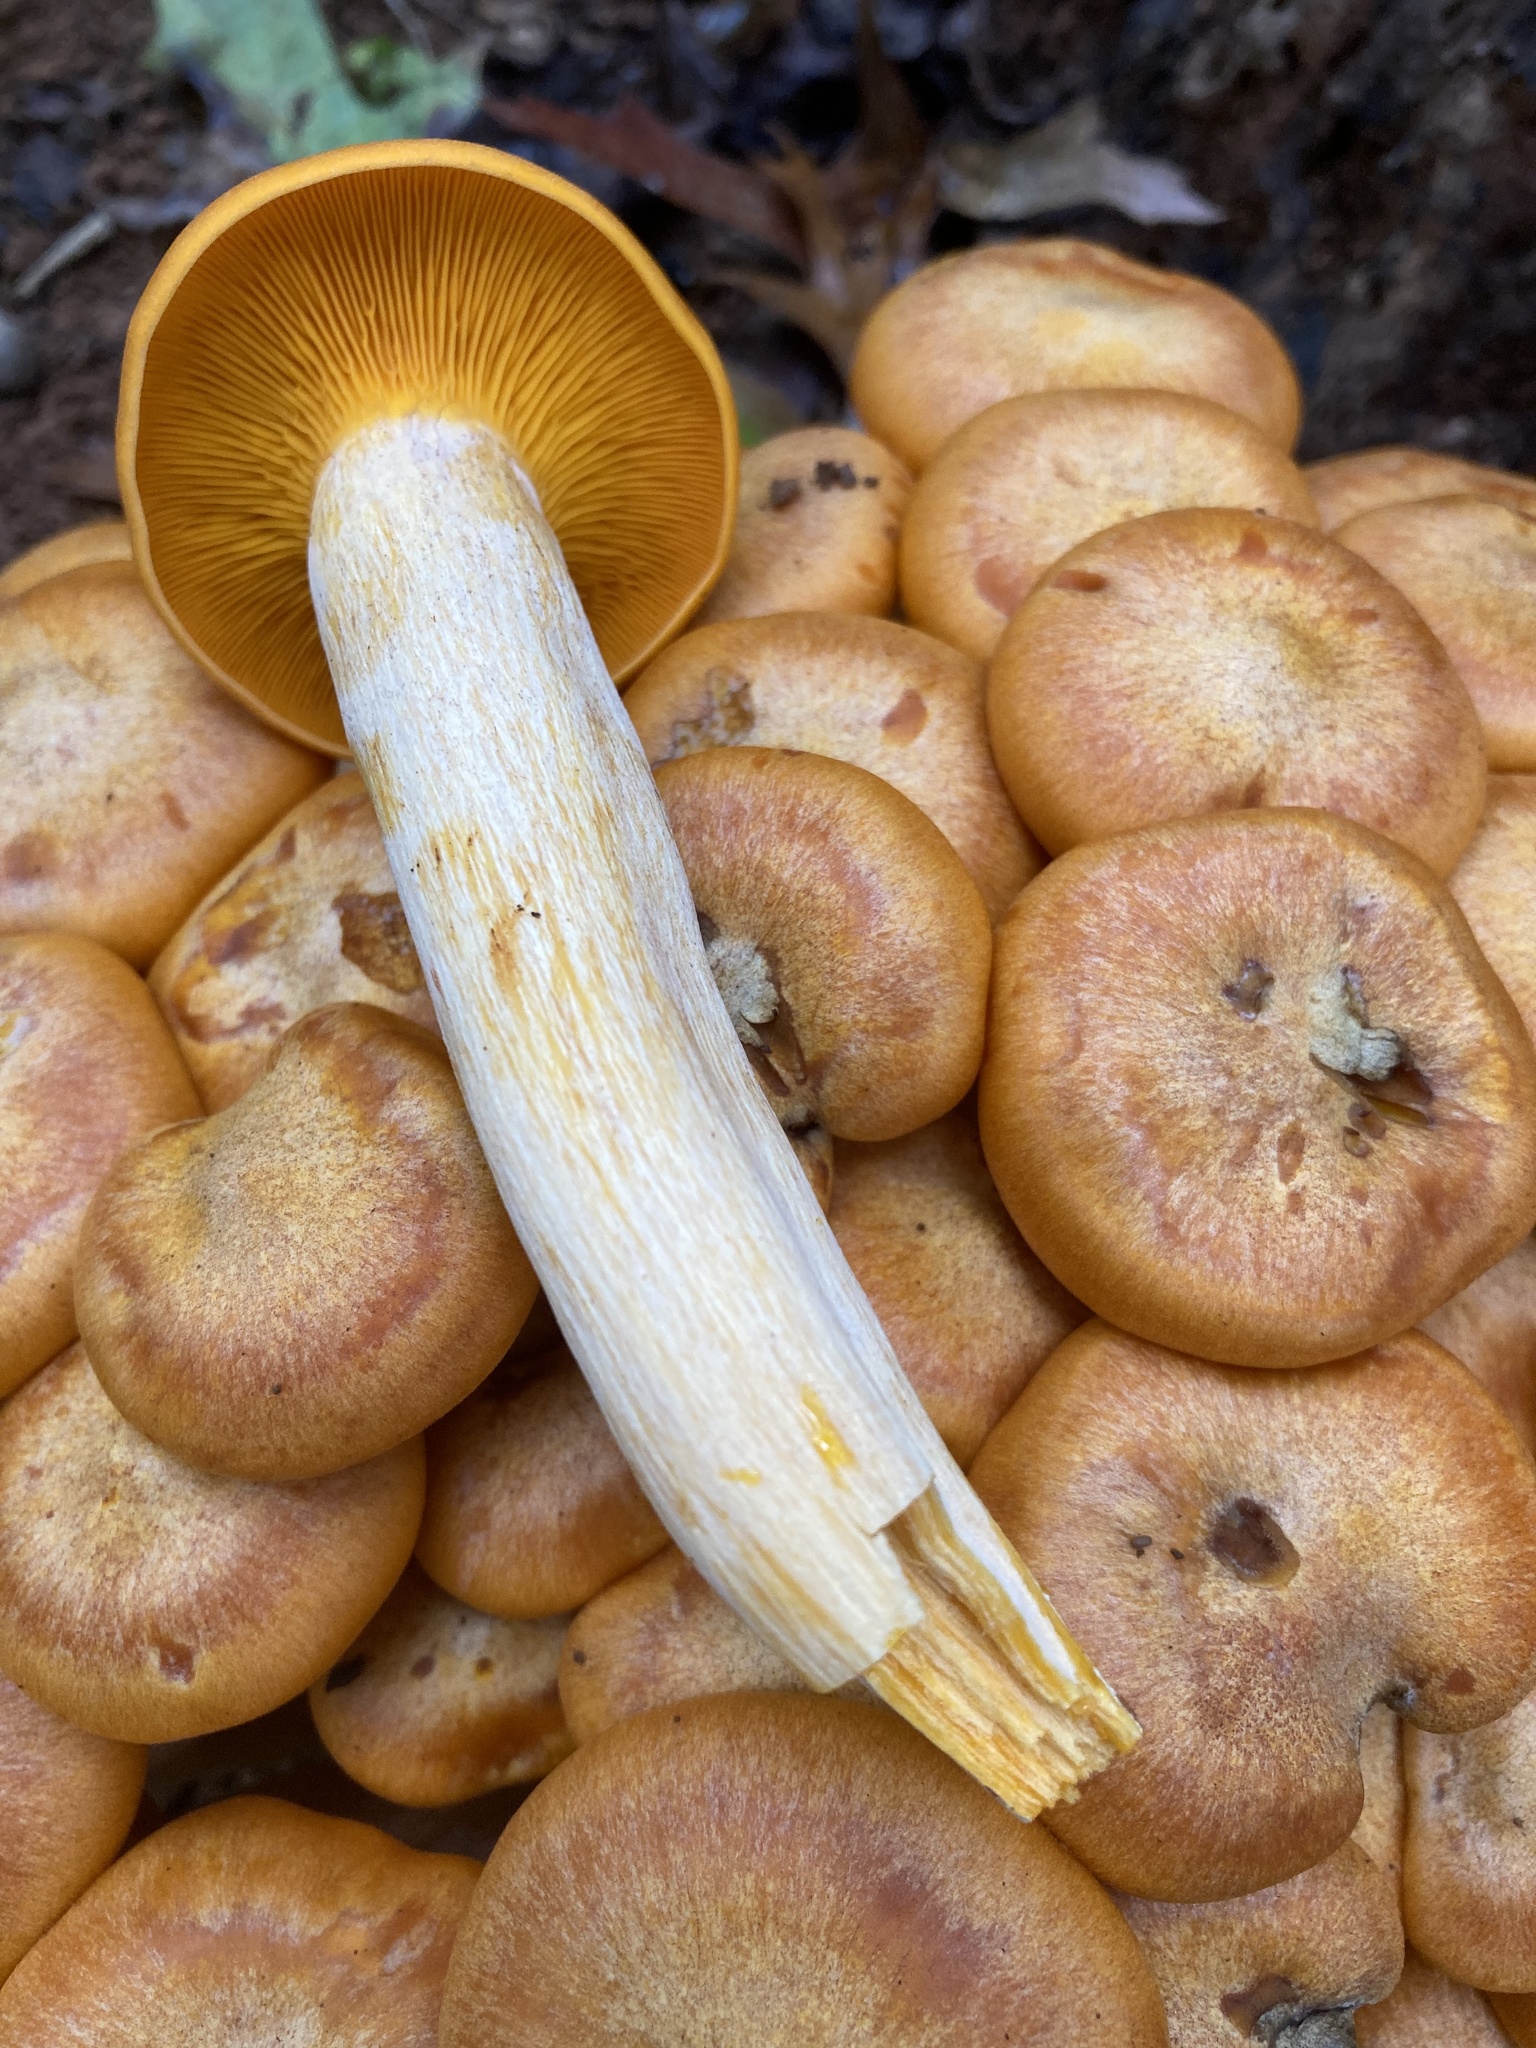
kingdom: Fungi
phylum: Basidiomycota
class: Agaricomycetes
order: Agaricales
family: Omphalotaceae
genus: Omphalotus
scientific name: Omphalotus illudens
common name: Jack o lantern
